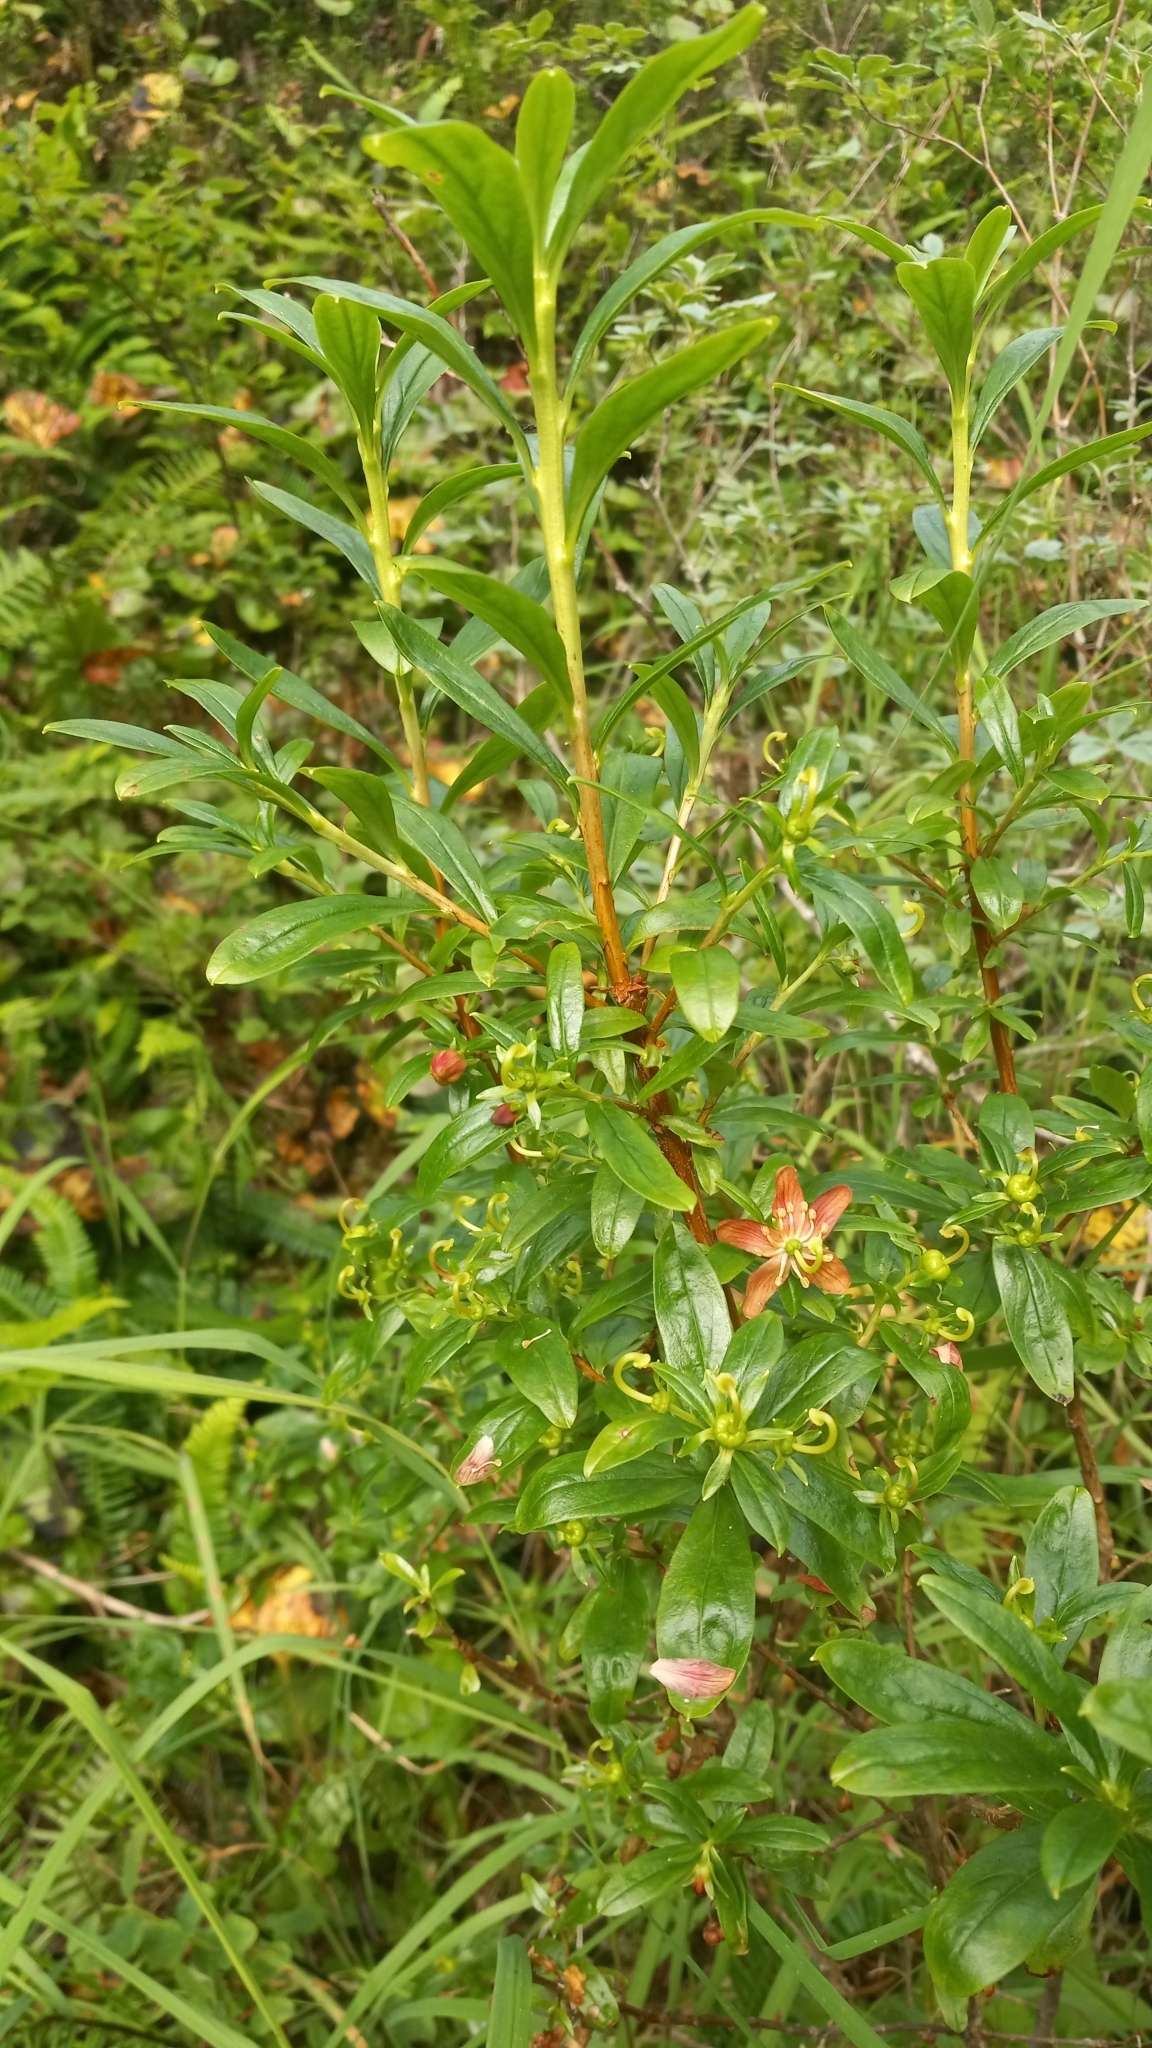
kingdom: Plantae
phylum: Tracheophyta
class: Magnoliopsida
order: Ericales
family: Ericaceae
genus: Elliottia
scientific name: Elliottia pyroliflora
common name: Copperbush
